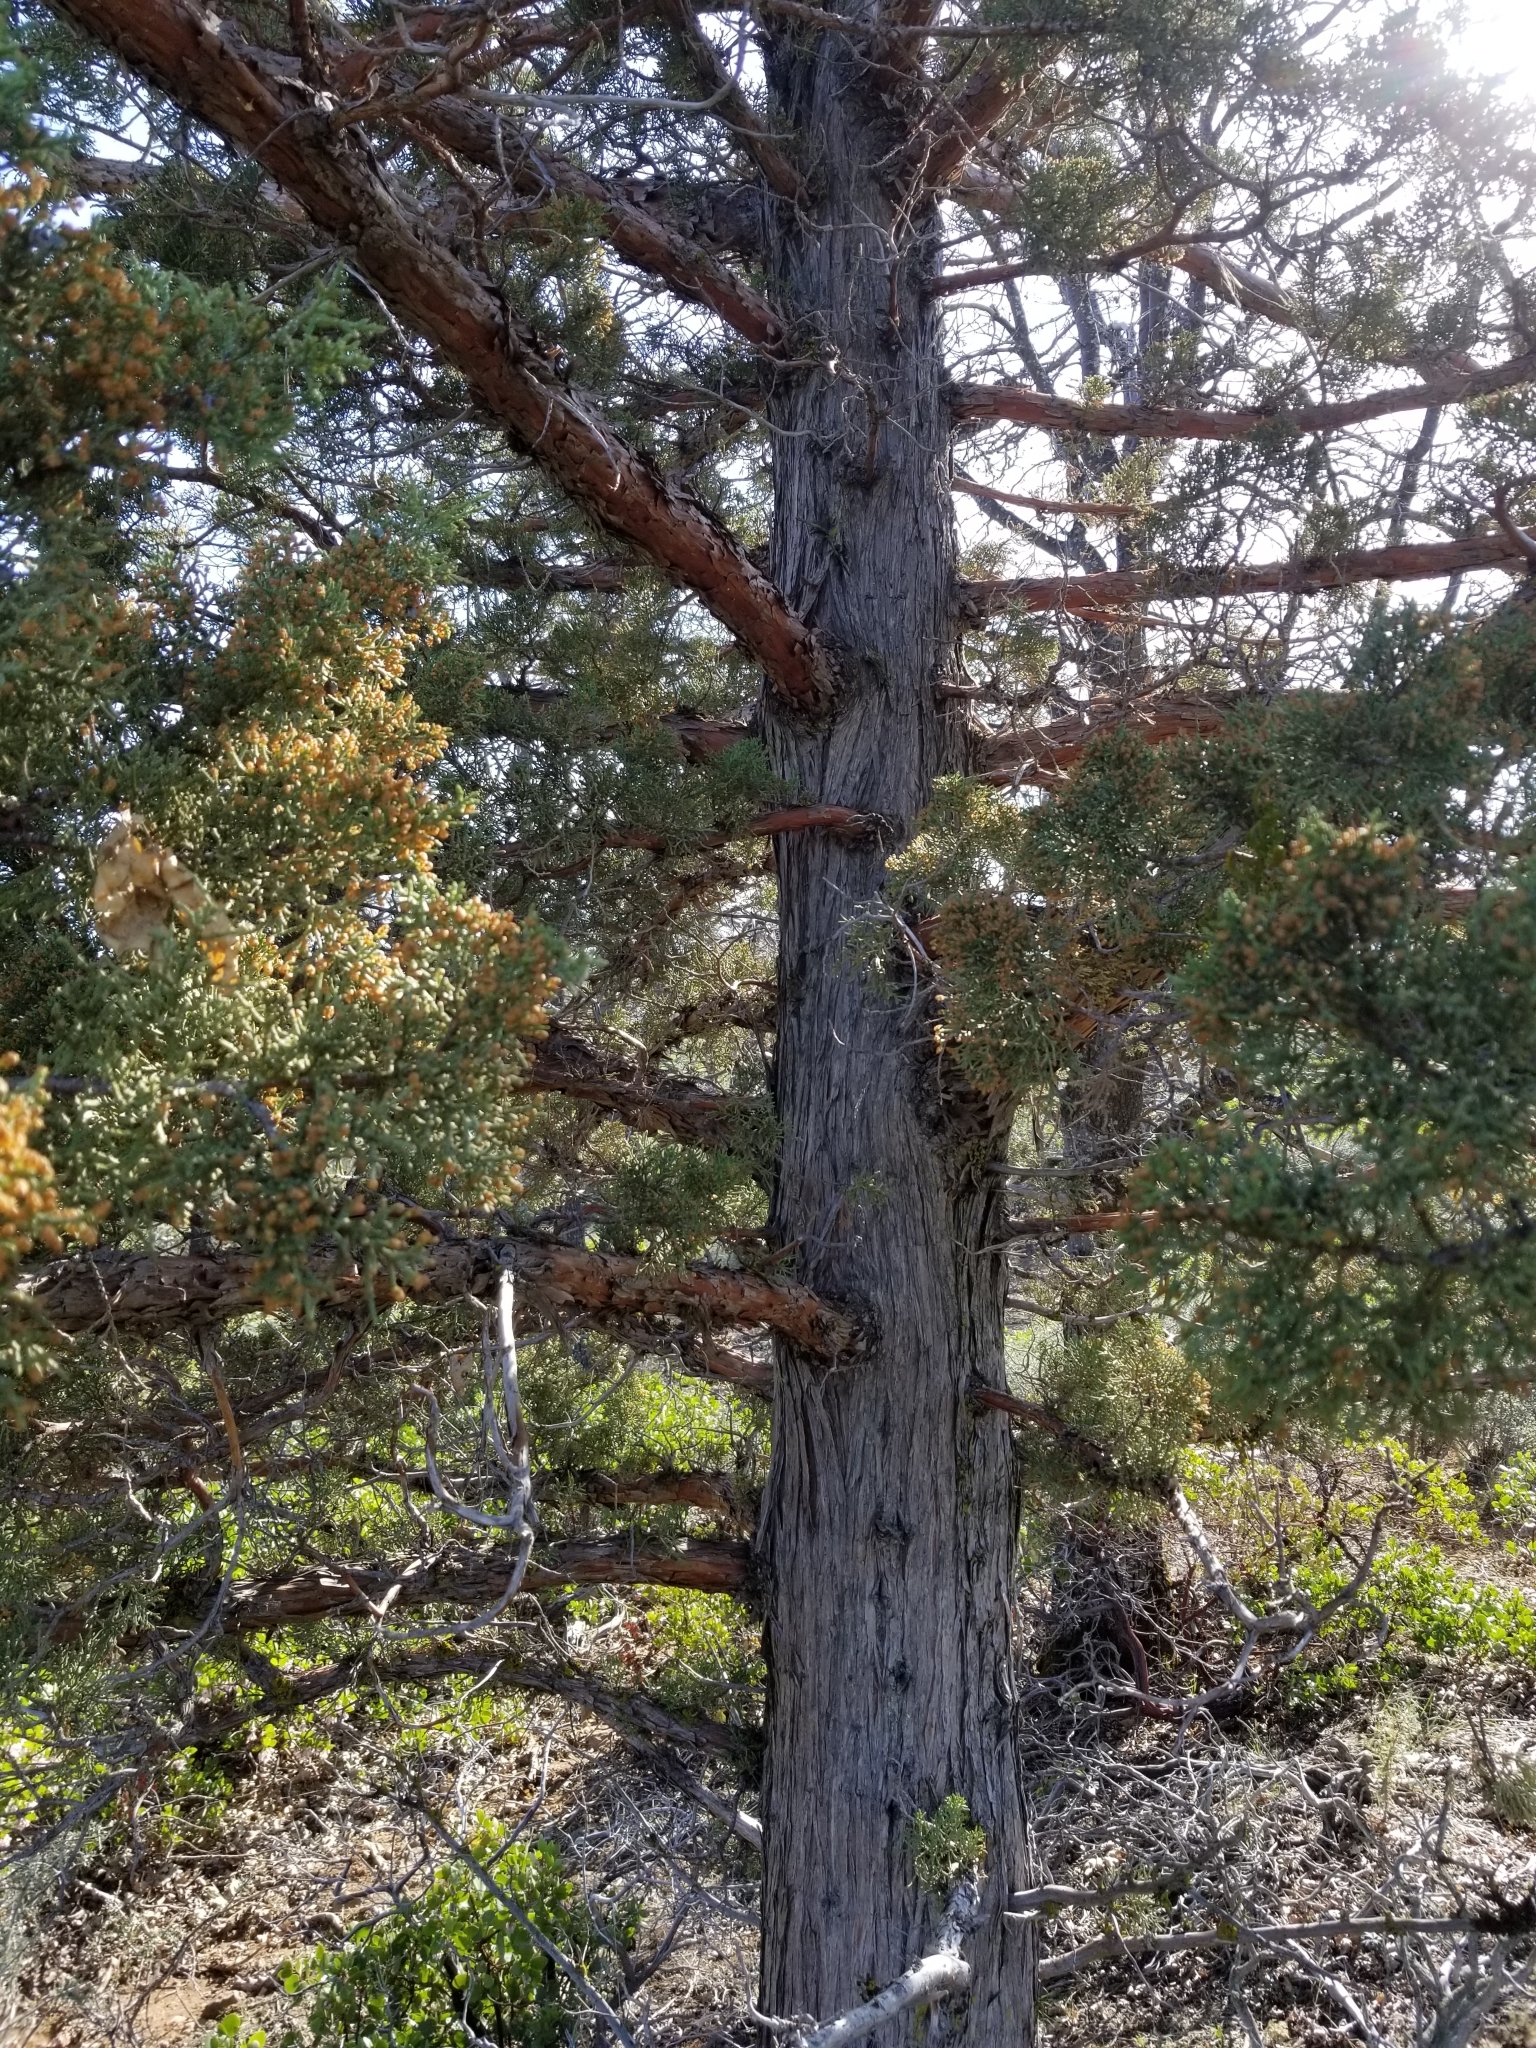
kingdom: Plantae
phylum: Tracheophyta
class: Pinopsida
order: Pinales
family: Cupressaceae
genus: Juniperus
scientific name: Juniperus occidentalis
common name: Western juniper
